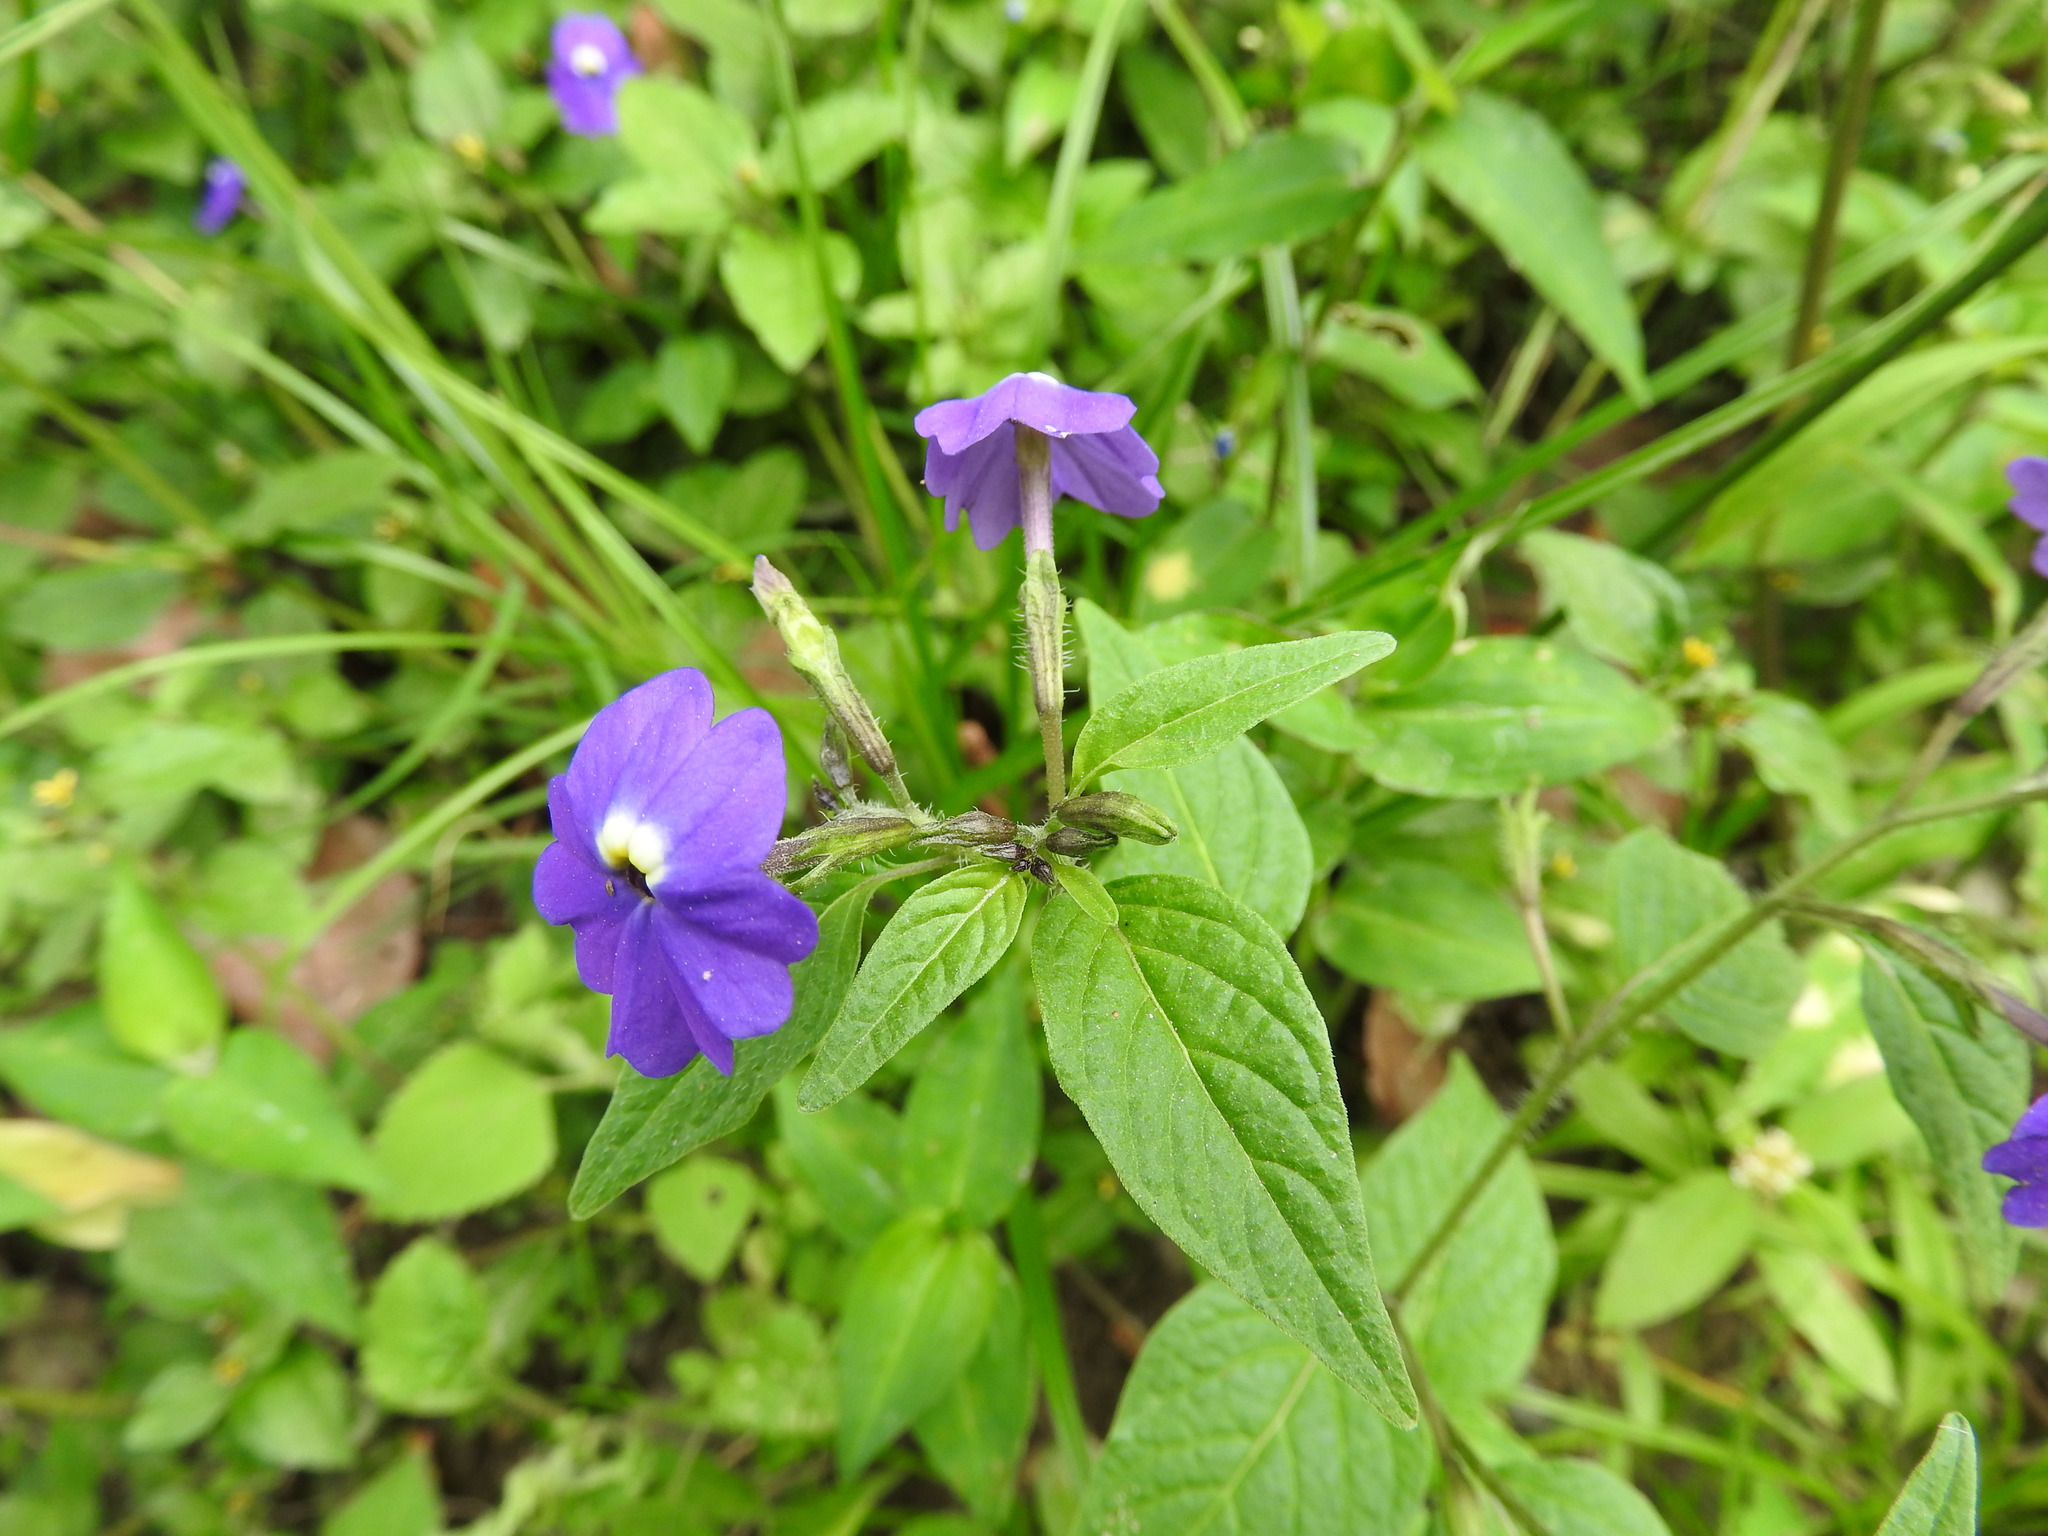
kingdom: Plantae
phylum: Tracheophyta
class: Magnoliopsida
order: Solanales
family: Solanaceae
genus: Browallia
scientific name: Browallia americana
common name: Jamaican forget-me-not
